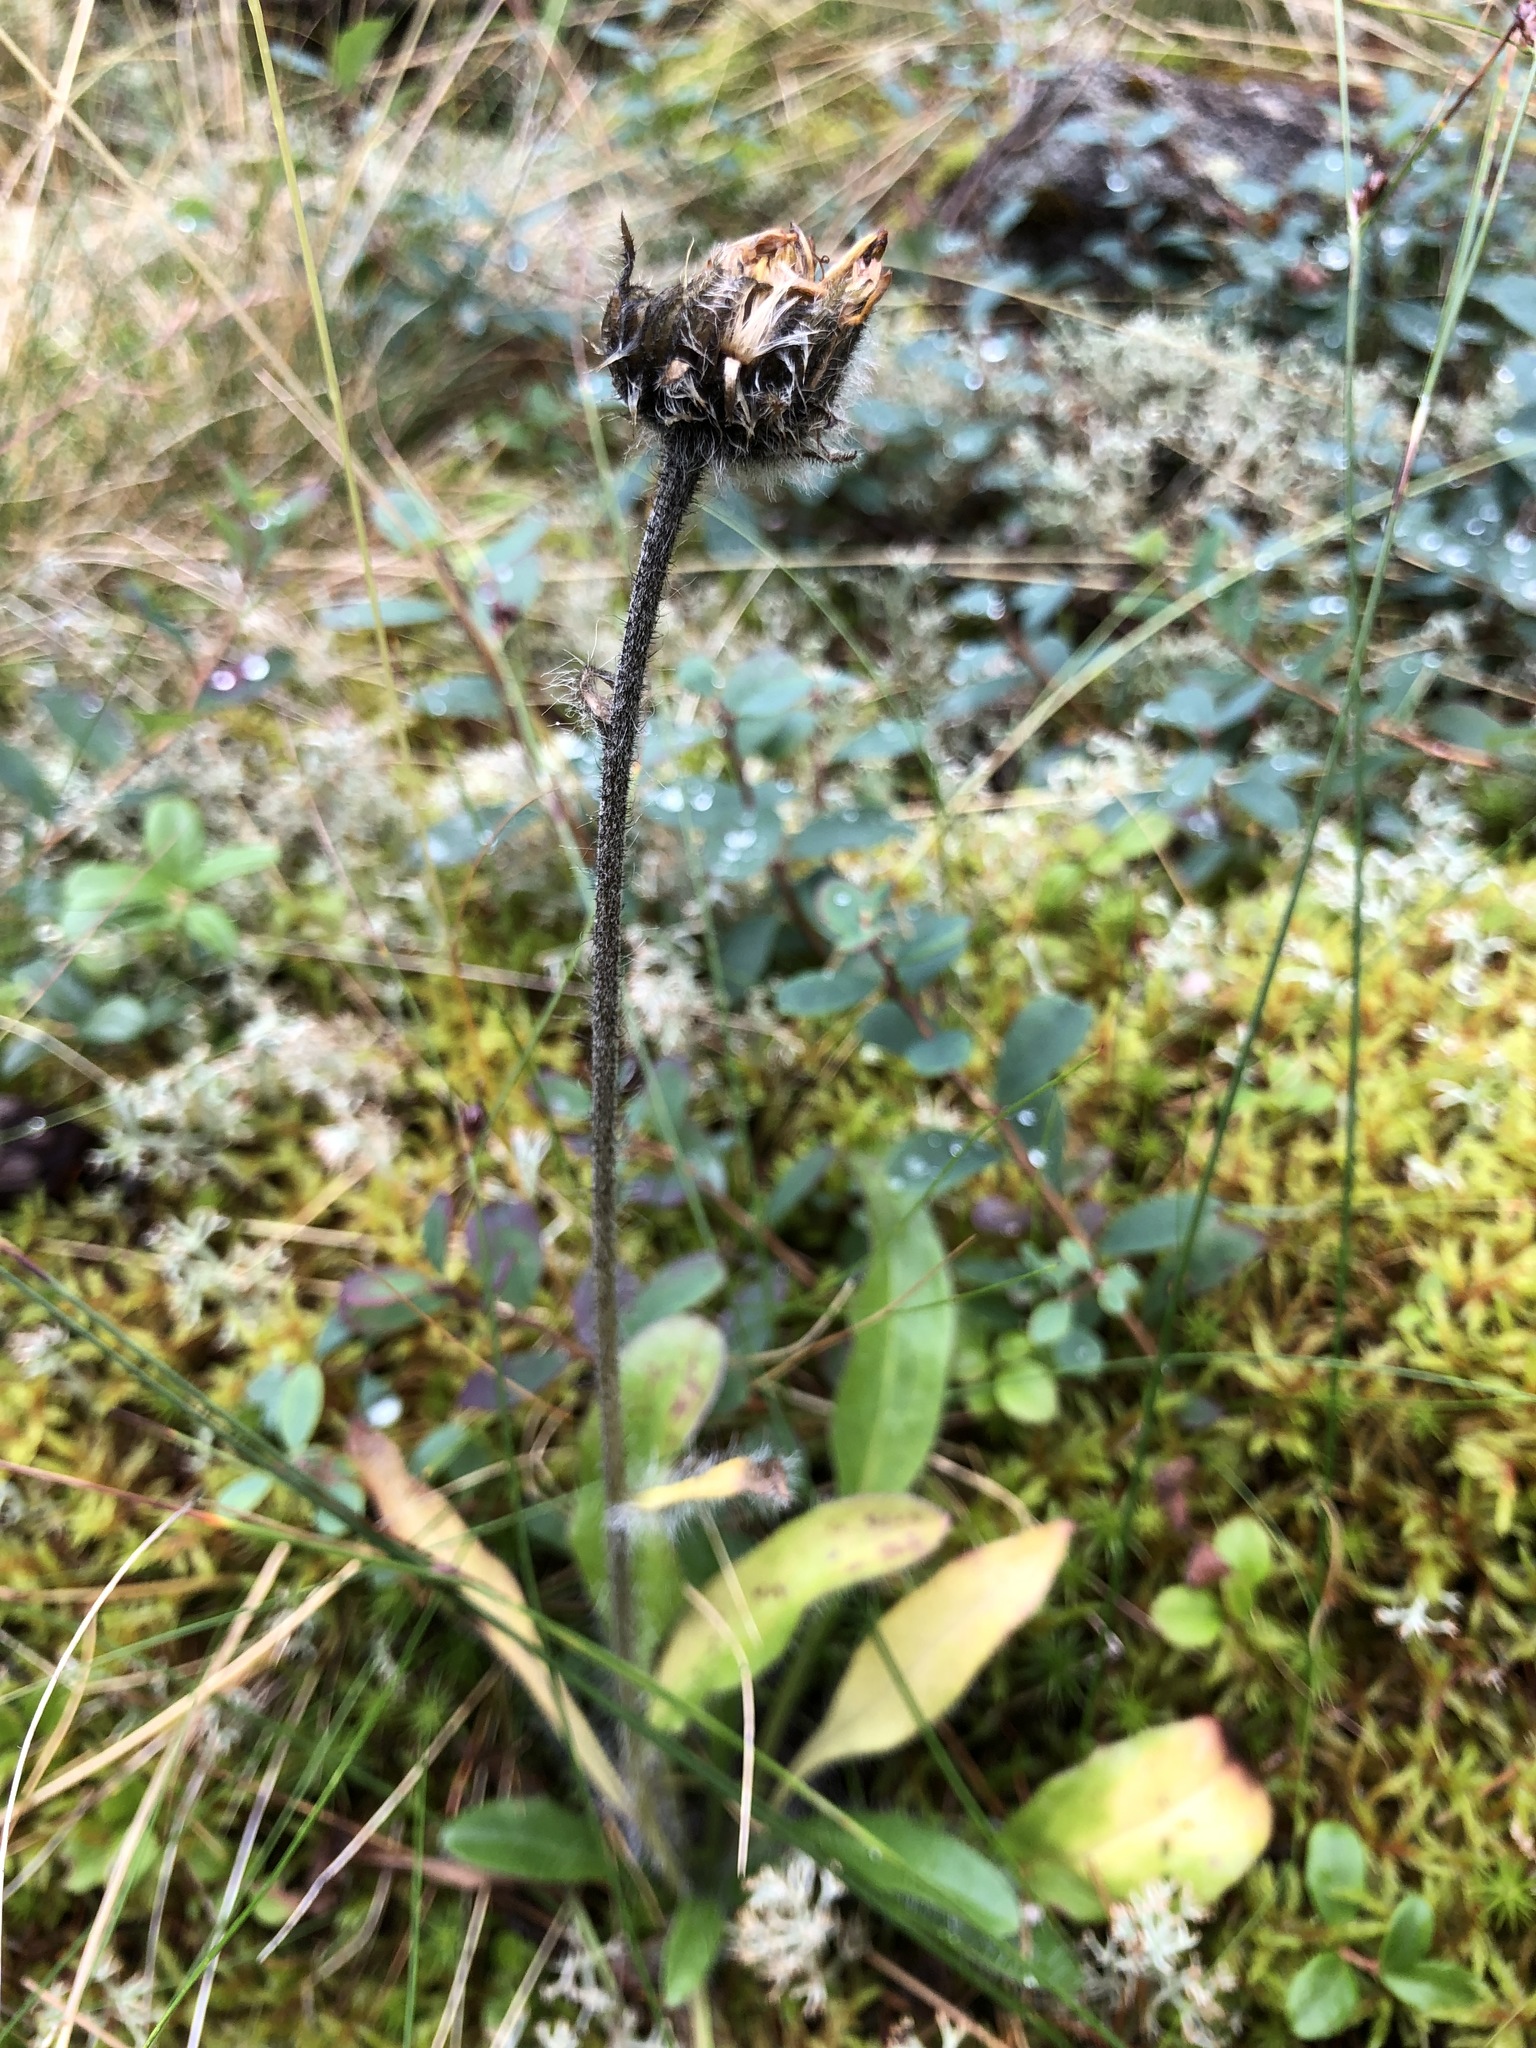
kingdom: Plantae
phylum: Tracheophyta
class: Magnoliopsida
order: Asterales
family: Asteraceae
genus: Hieracium
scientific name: Hieracium alpinum
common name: Alpine hawkweed
